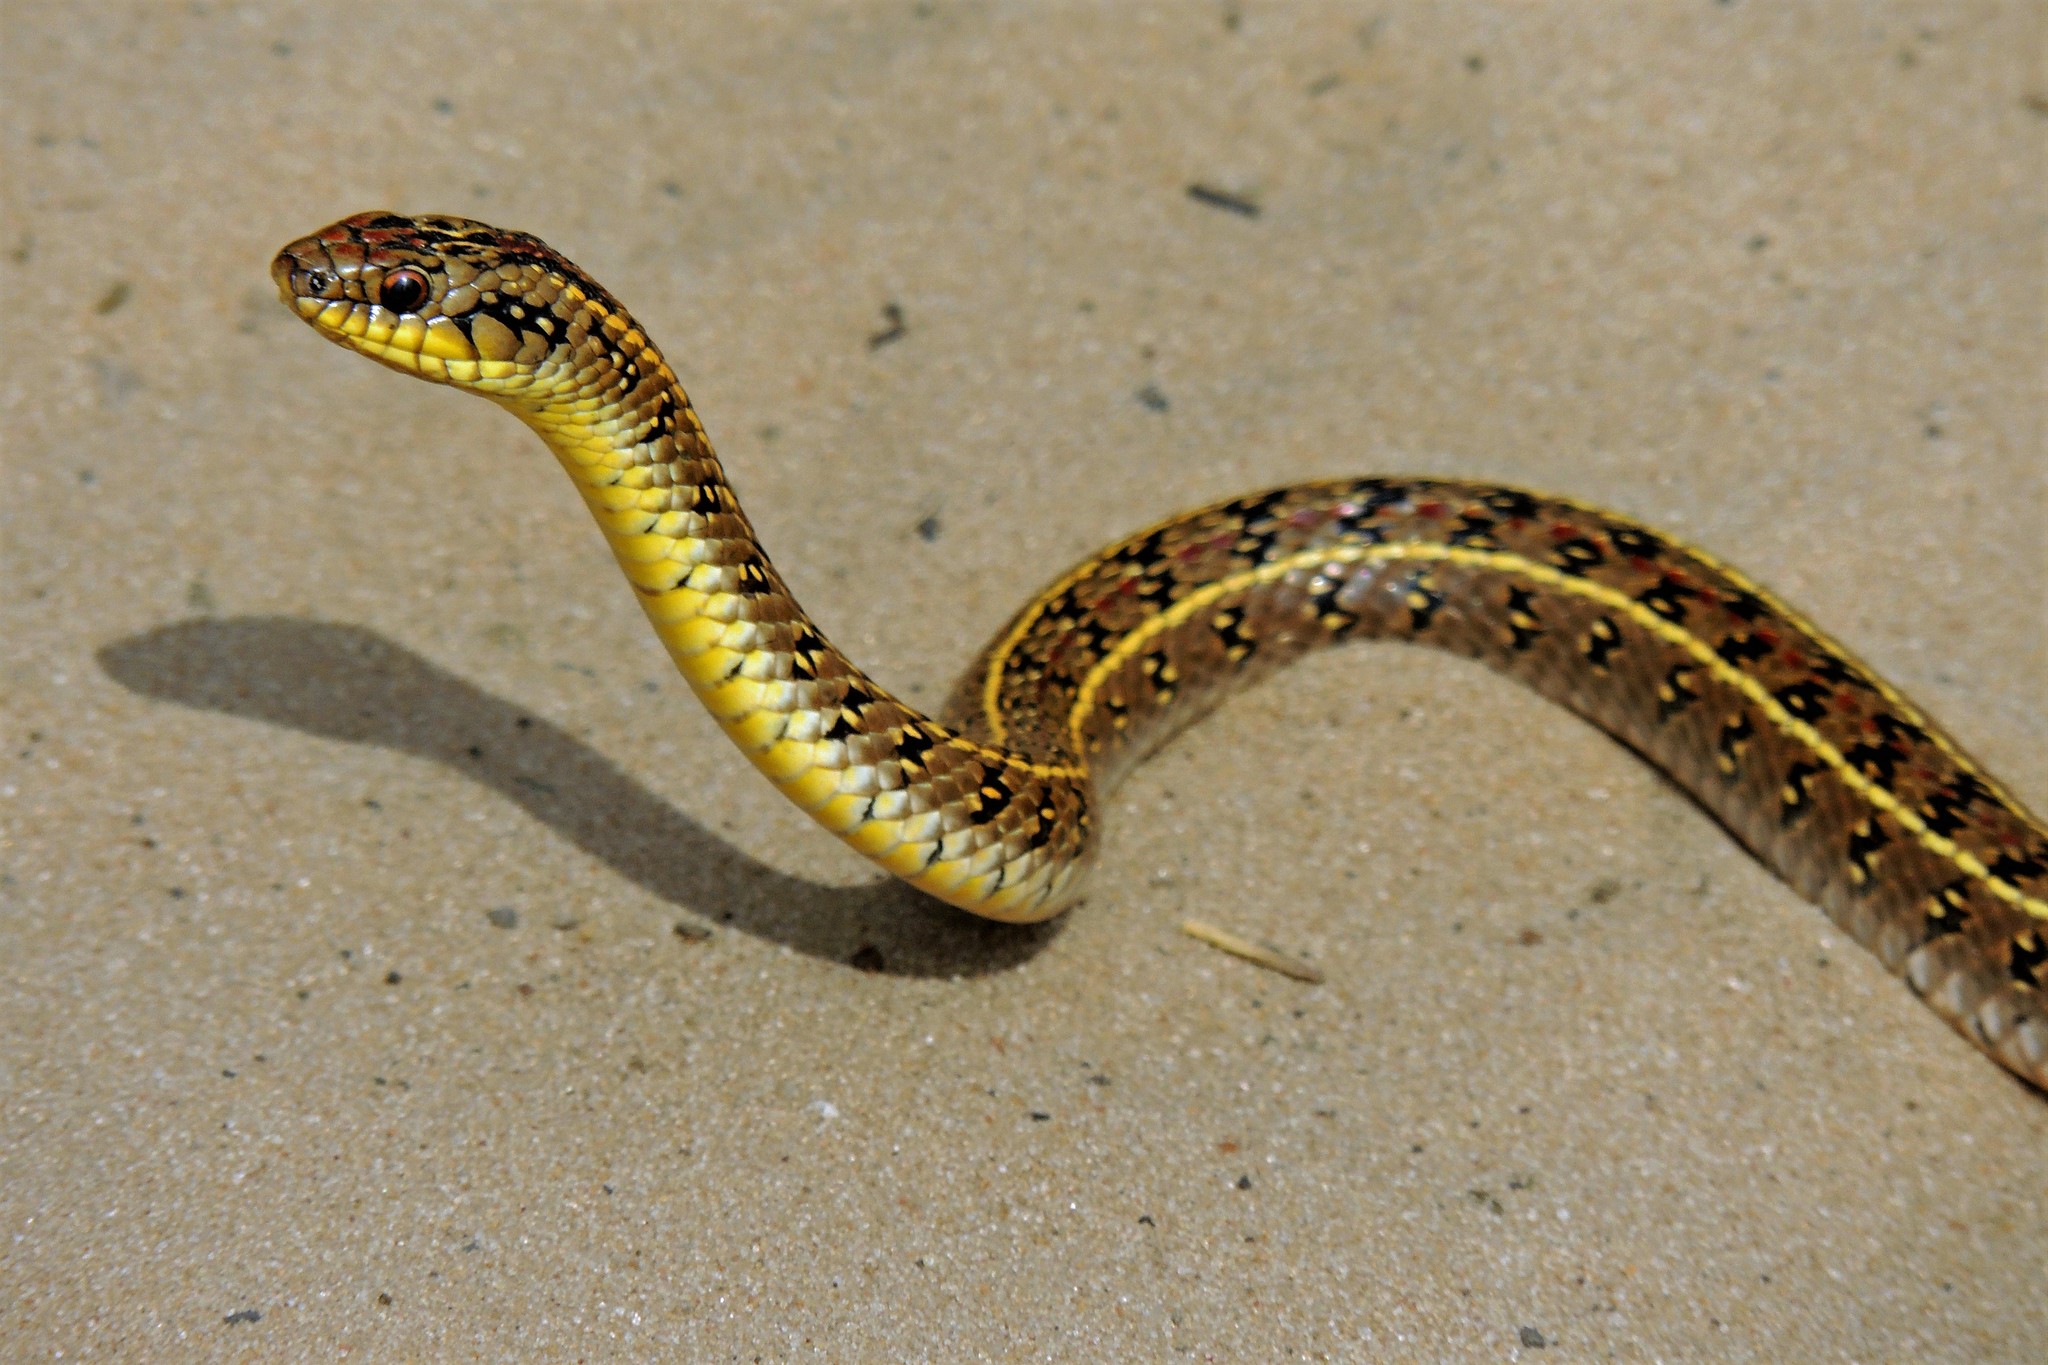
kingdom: Animalia
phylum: Chordata
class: Squamata
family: Colubridae
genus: Lygophis
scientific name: Lygophis anomalus
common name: English common name not available
